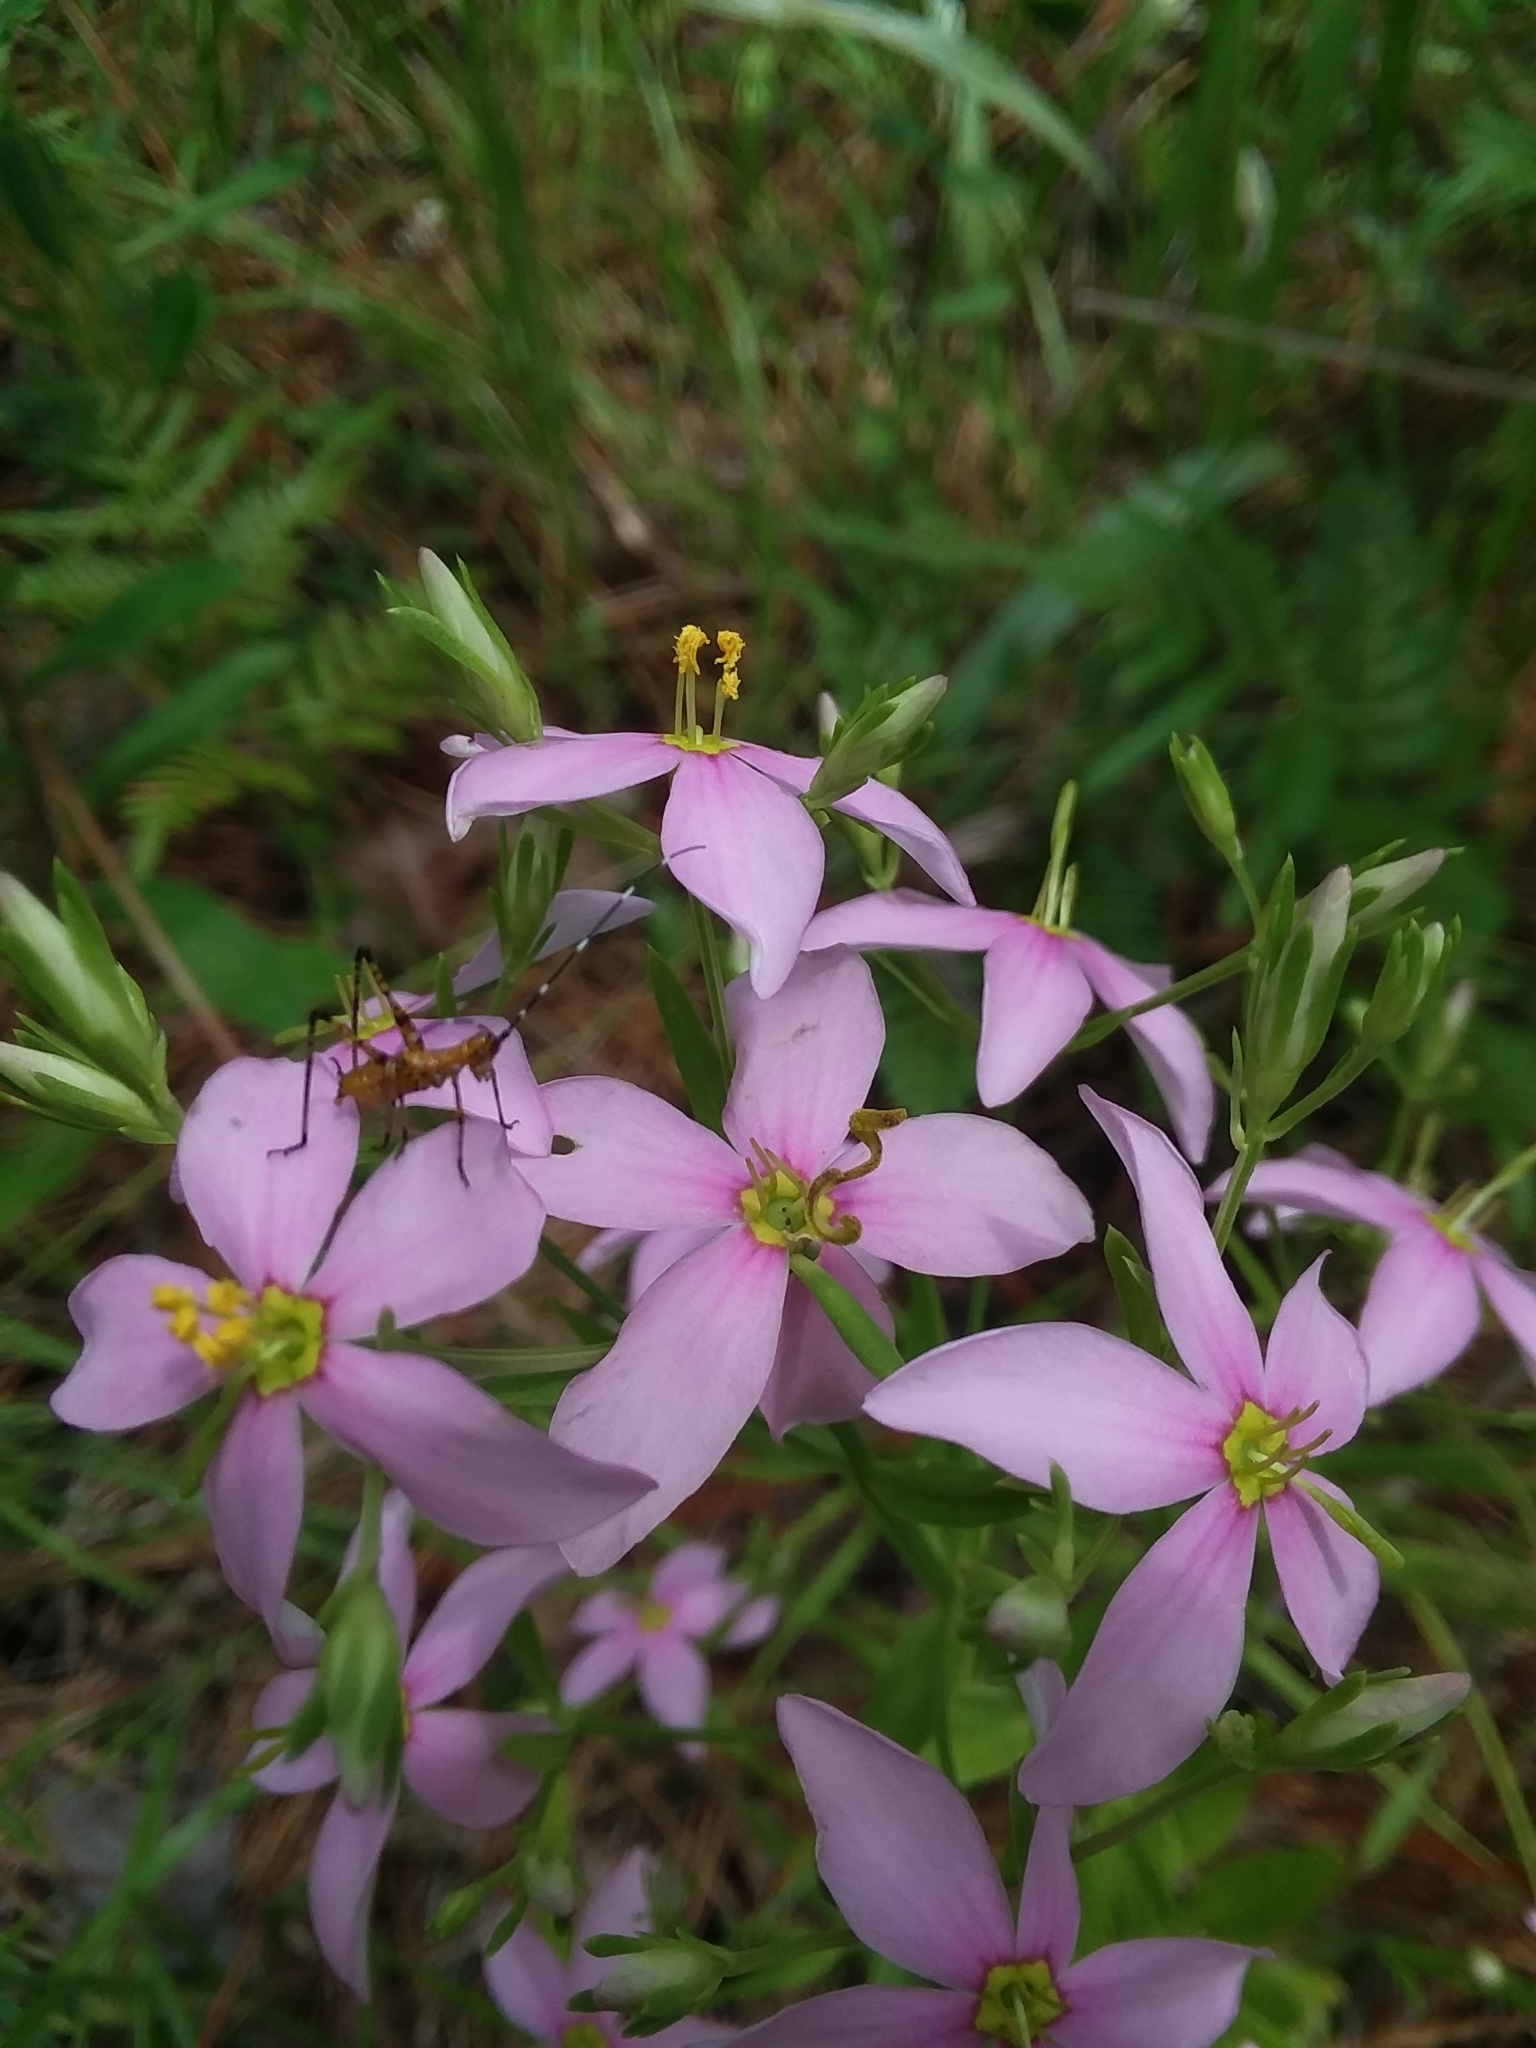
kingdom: Plantae
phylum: Tracheophyta
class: Magnoliopsida
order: Gentianales
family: Gentianaceae
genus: Sabatia
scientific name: Sabatia brachiata
